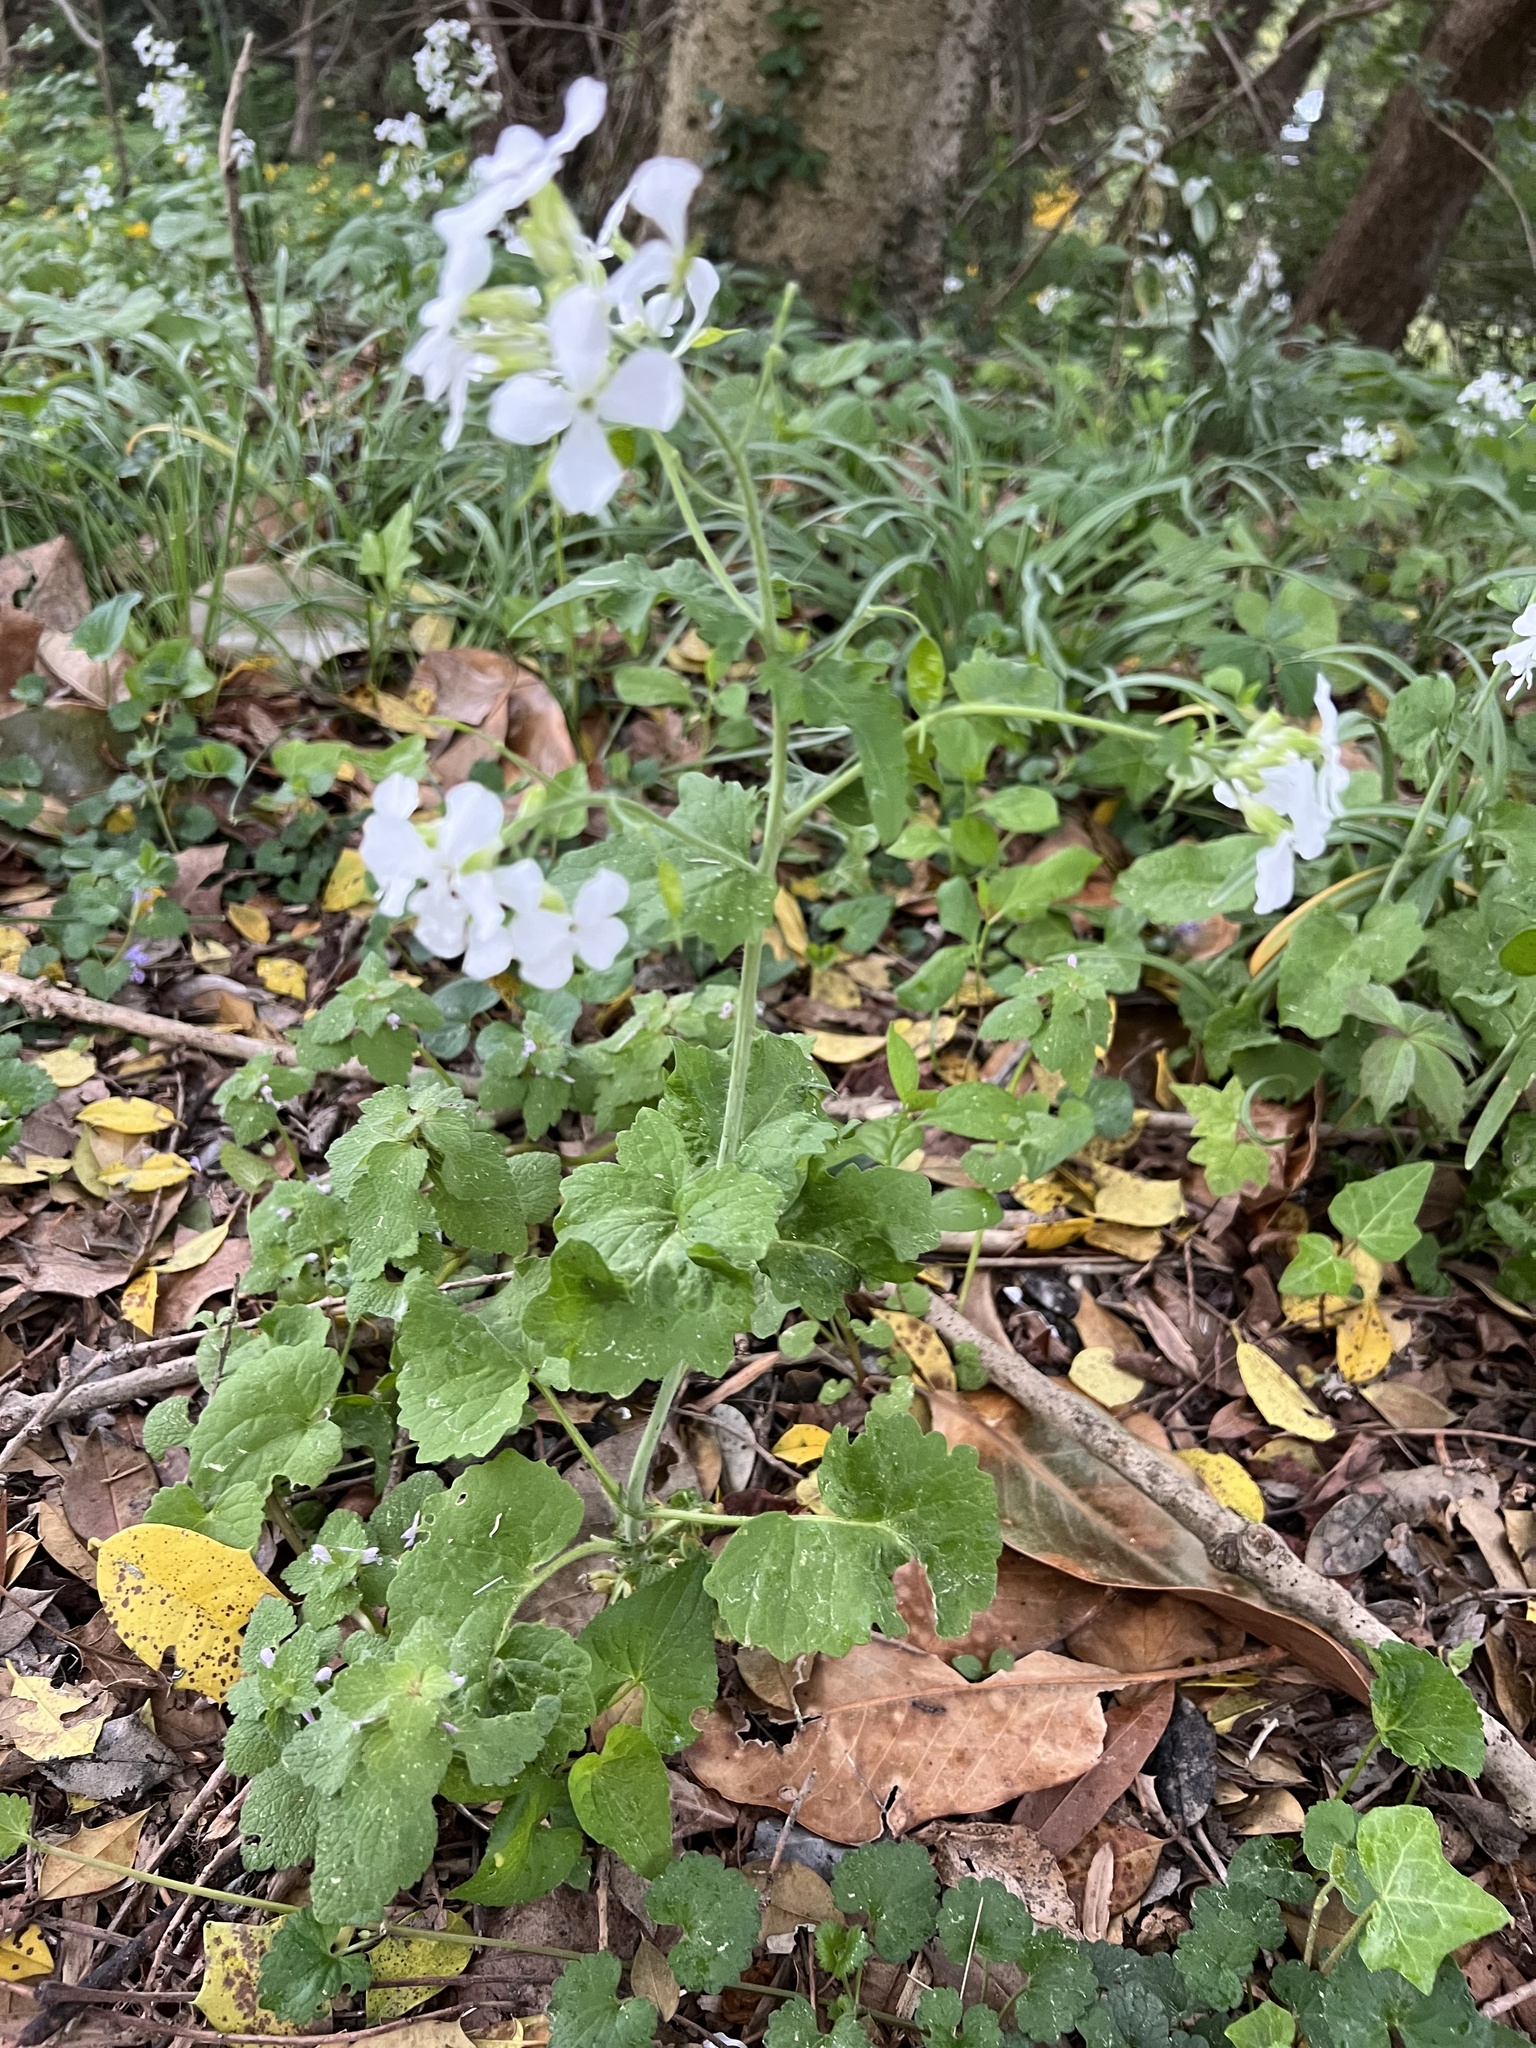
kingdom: Plantae
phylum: Tracheophyta
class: Magnoliopsida
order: Brassicales
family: Brassicaceae
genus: Lunaria
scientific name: Lunaria annua
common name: Honesty
